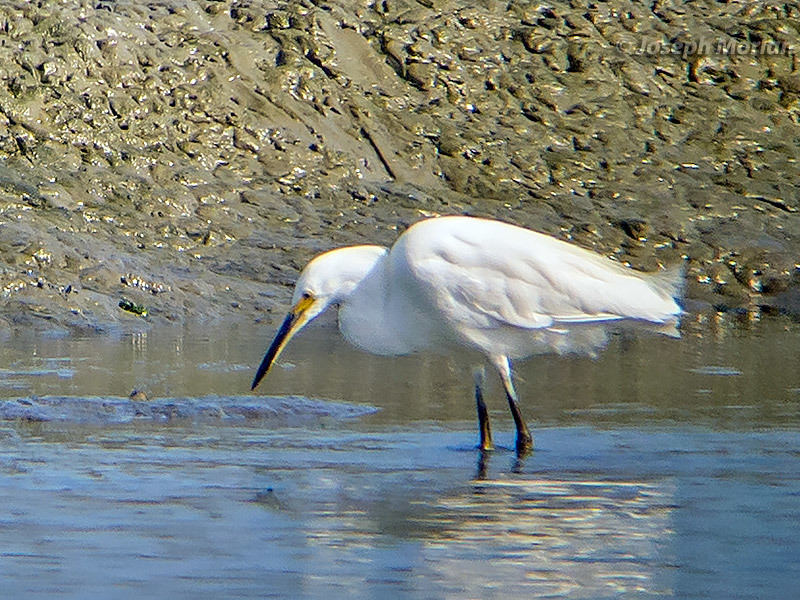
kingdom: Animalia
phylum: Chordata
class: Aves
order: Pelecaniformes
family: Ardeidae
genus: Egretta
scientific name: Egretta thula
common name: Snowy egret
